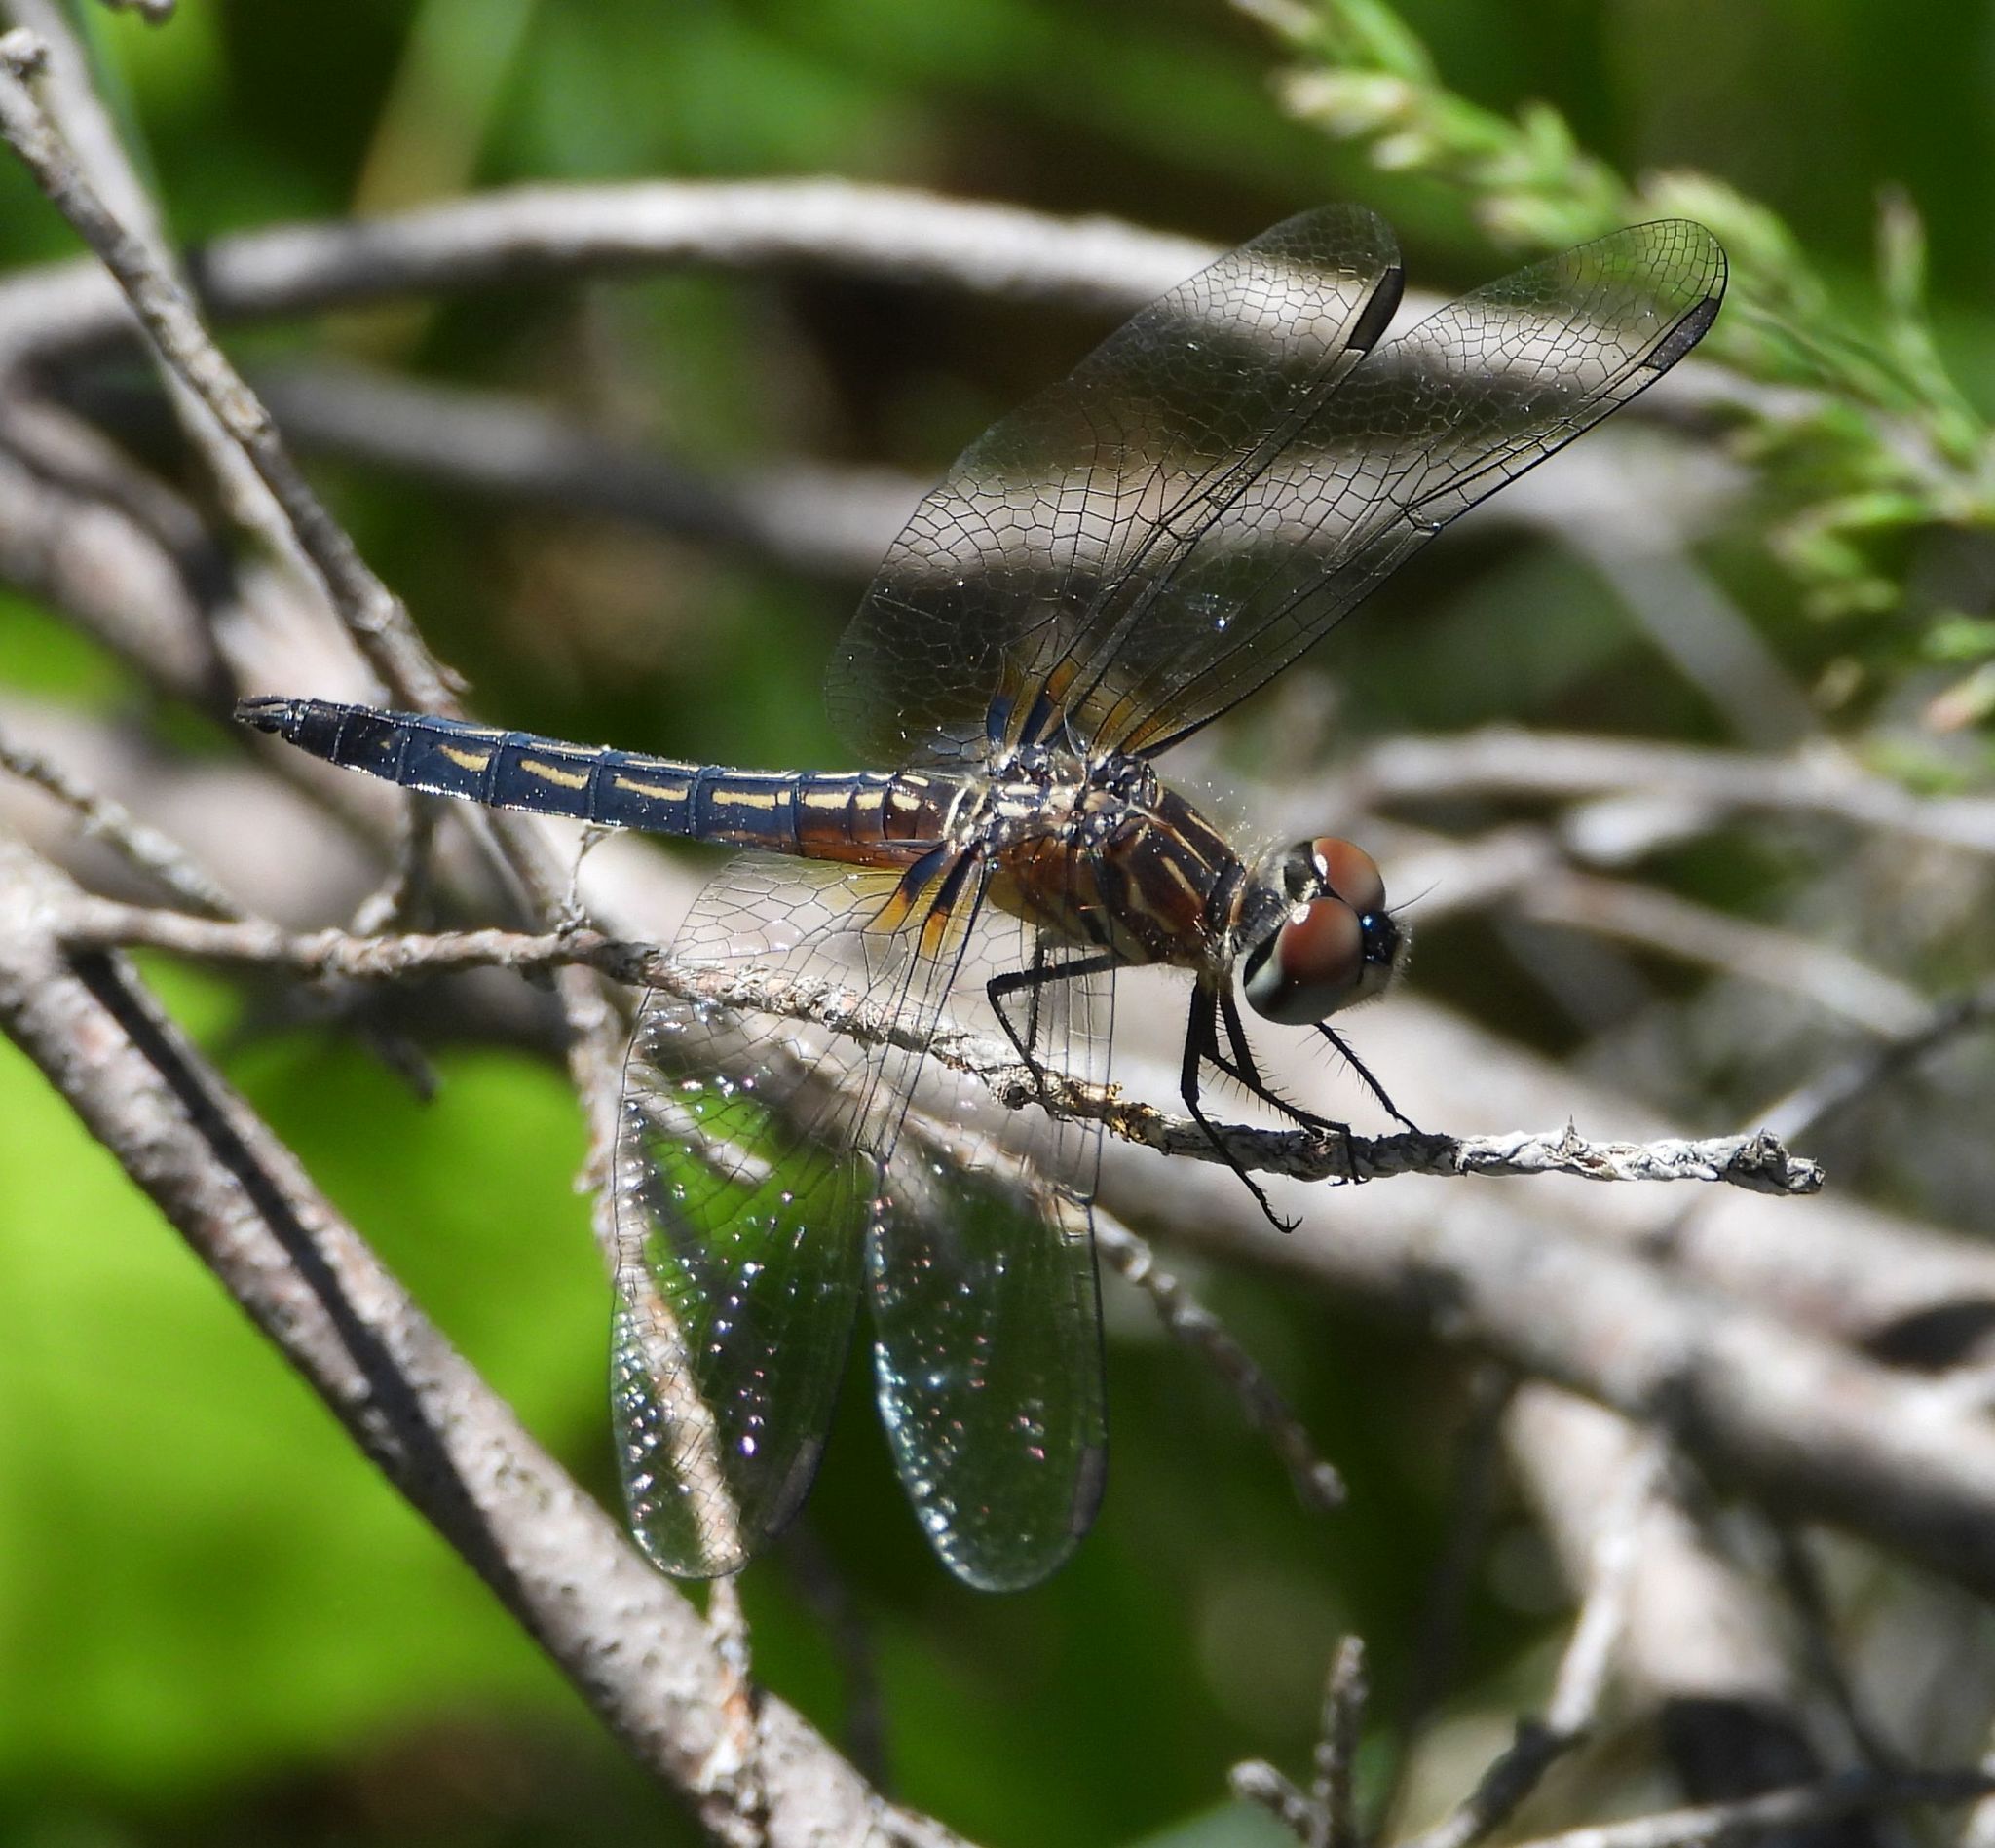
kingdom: Animalia
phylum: Arthropoda
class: Insecta
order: Odonata
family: Libellulidae
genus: Pachydiplax
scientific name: Pachydiplax longipennis
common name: Blue dasher
